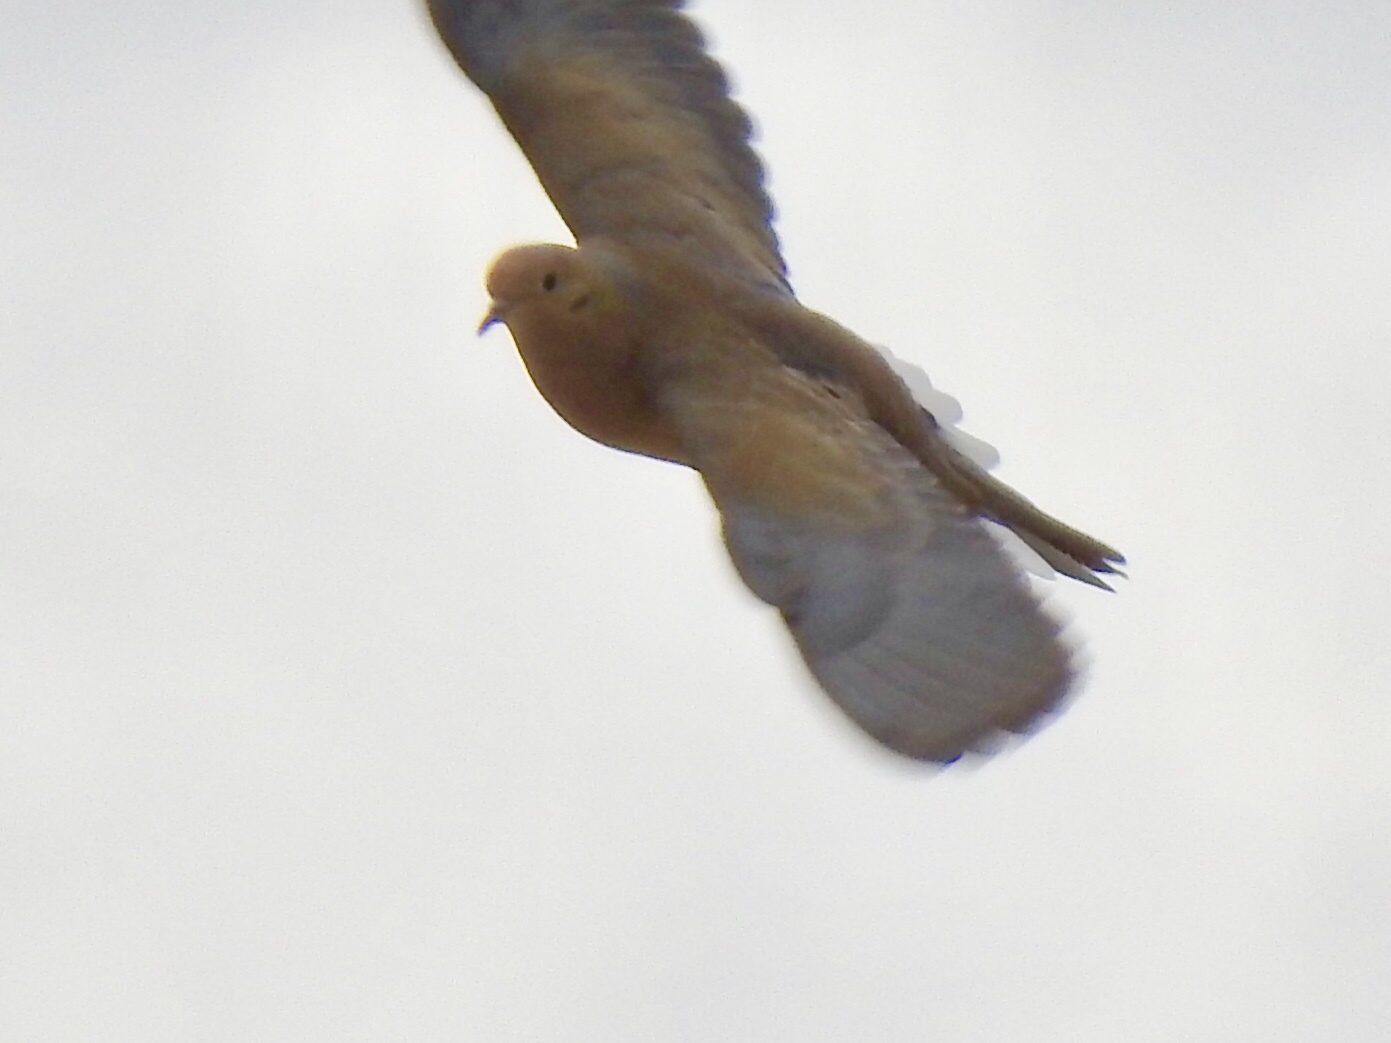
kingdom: Animalia
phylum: Chordata
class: Aves
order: Columbiformes
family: Columbidae
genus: Zenaida
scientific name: Zenaida macroura
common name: Mourning dove
